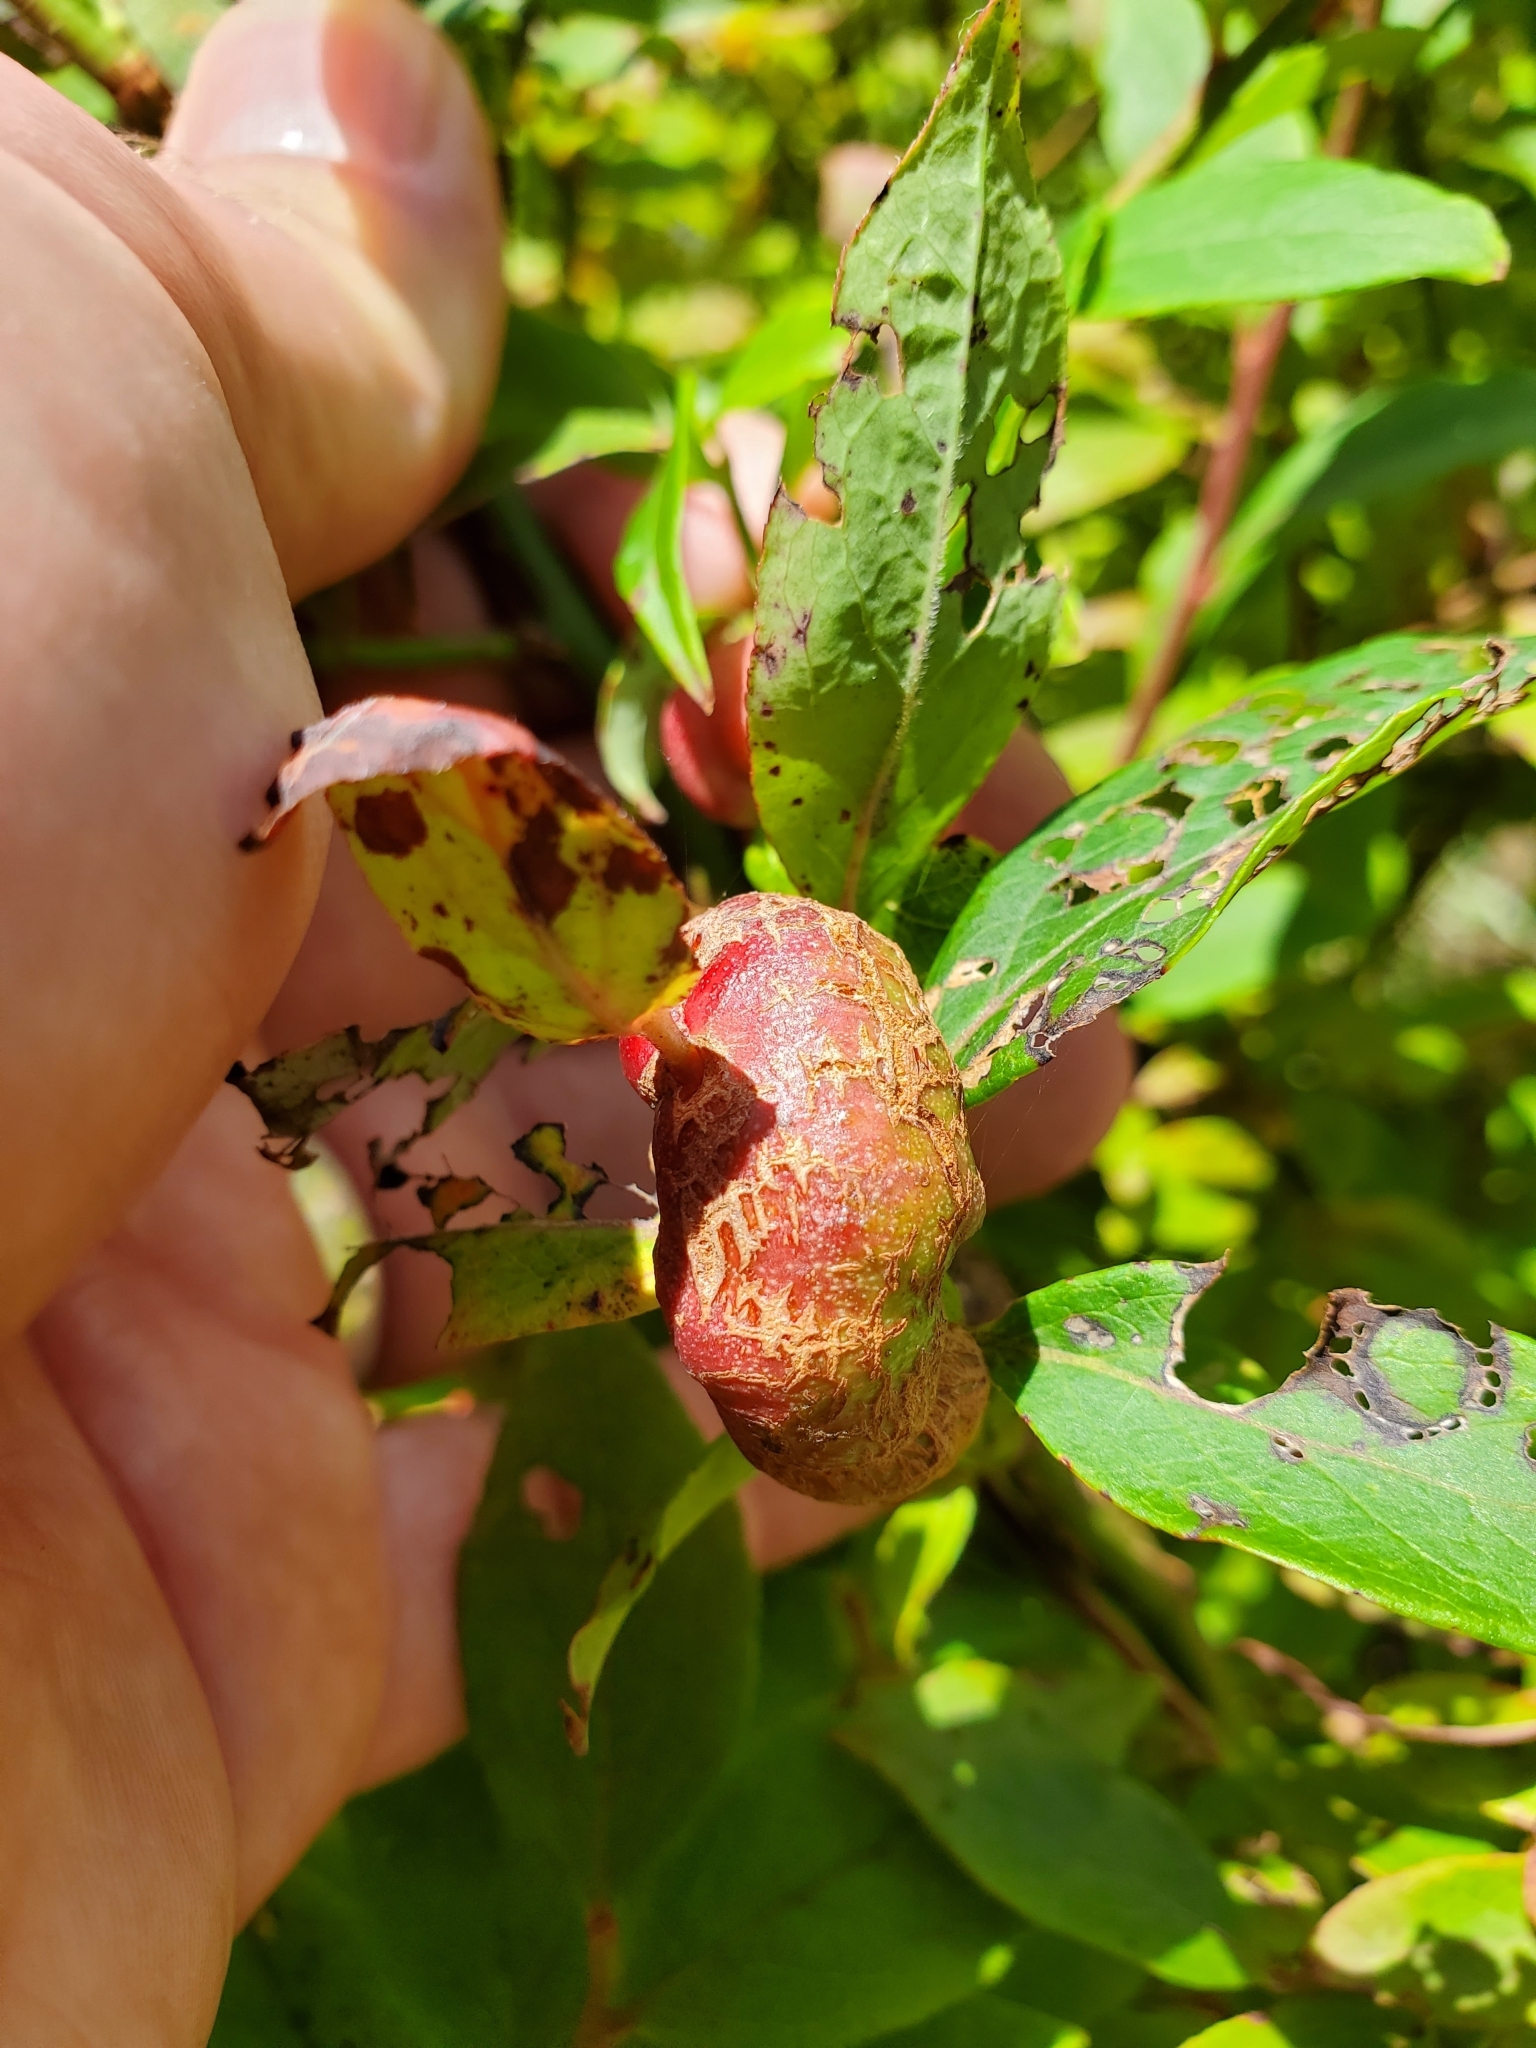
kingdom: Animalia
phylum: Arthropoda
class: Insecta
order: Hymenoptera
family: Pteromalidae
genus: Hemadas
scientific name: Hemadas nubilipennis
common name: Blueberry stem gall wasp
